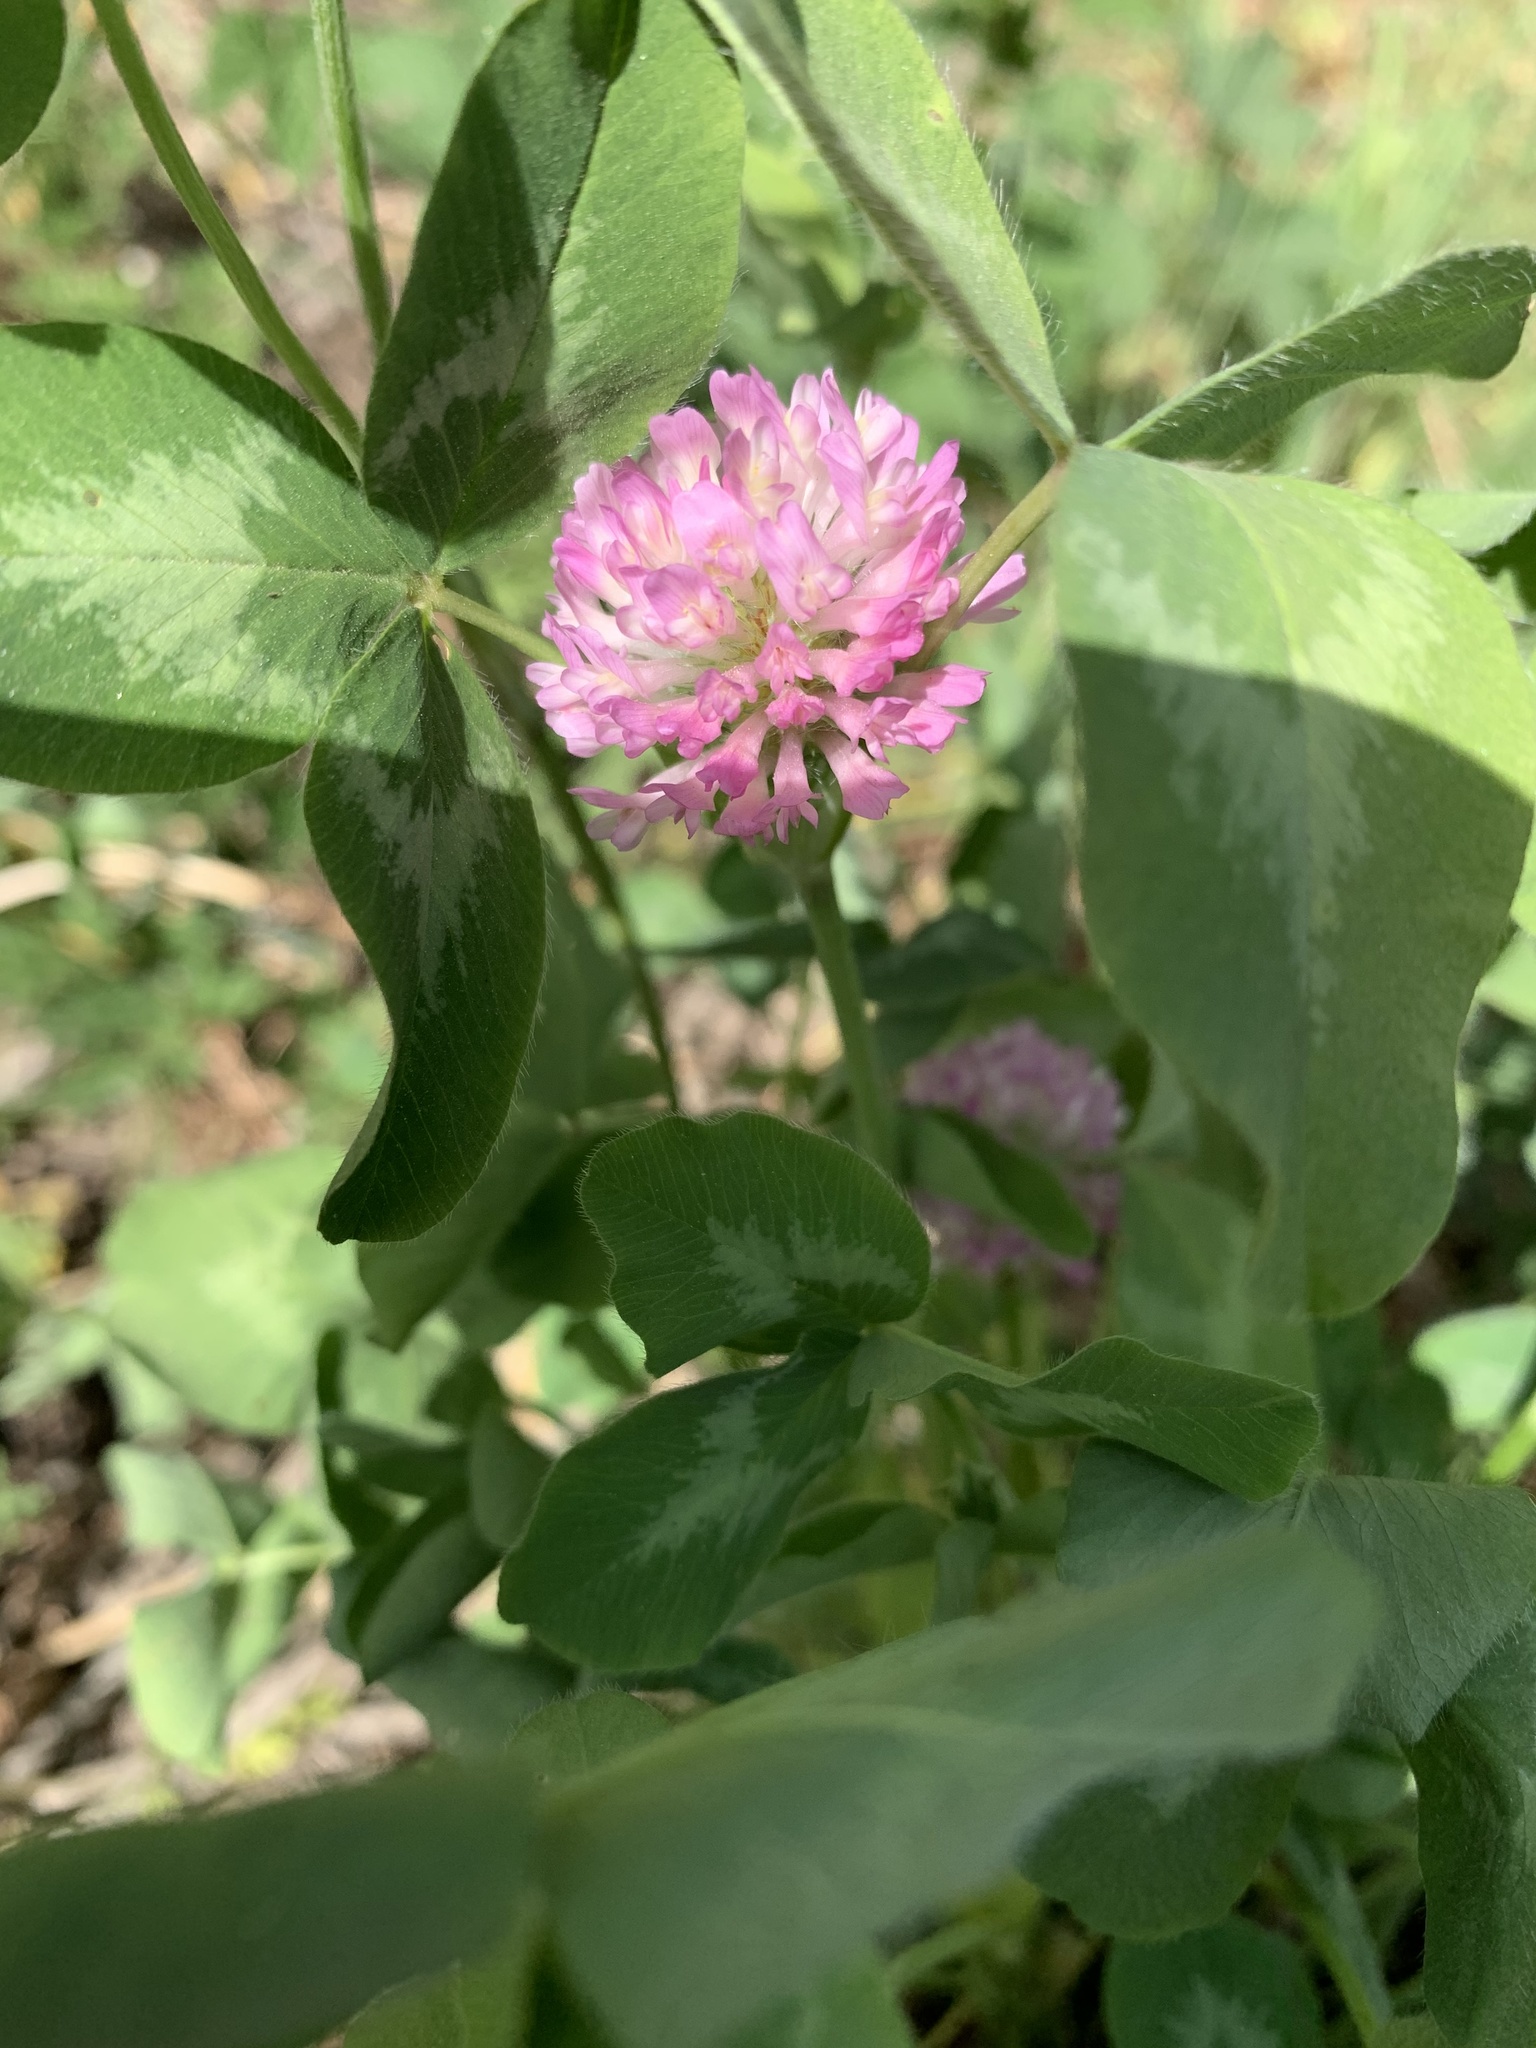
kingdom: Plantae
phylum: Tracheophyta
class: Magnoliopsida
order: Fabales
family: Fabaceae
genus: Trifolium
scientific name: Trifolium pratense
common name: Red clover
